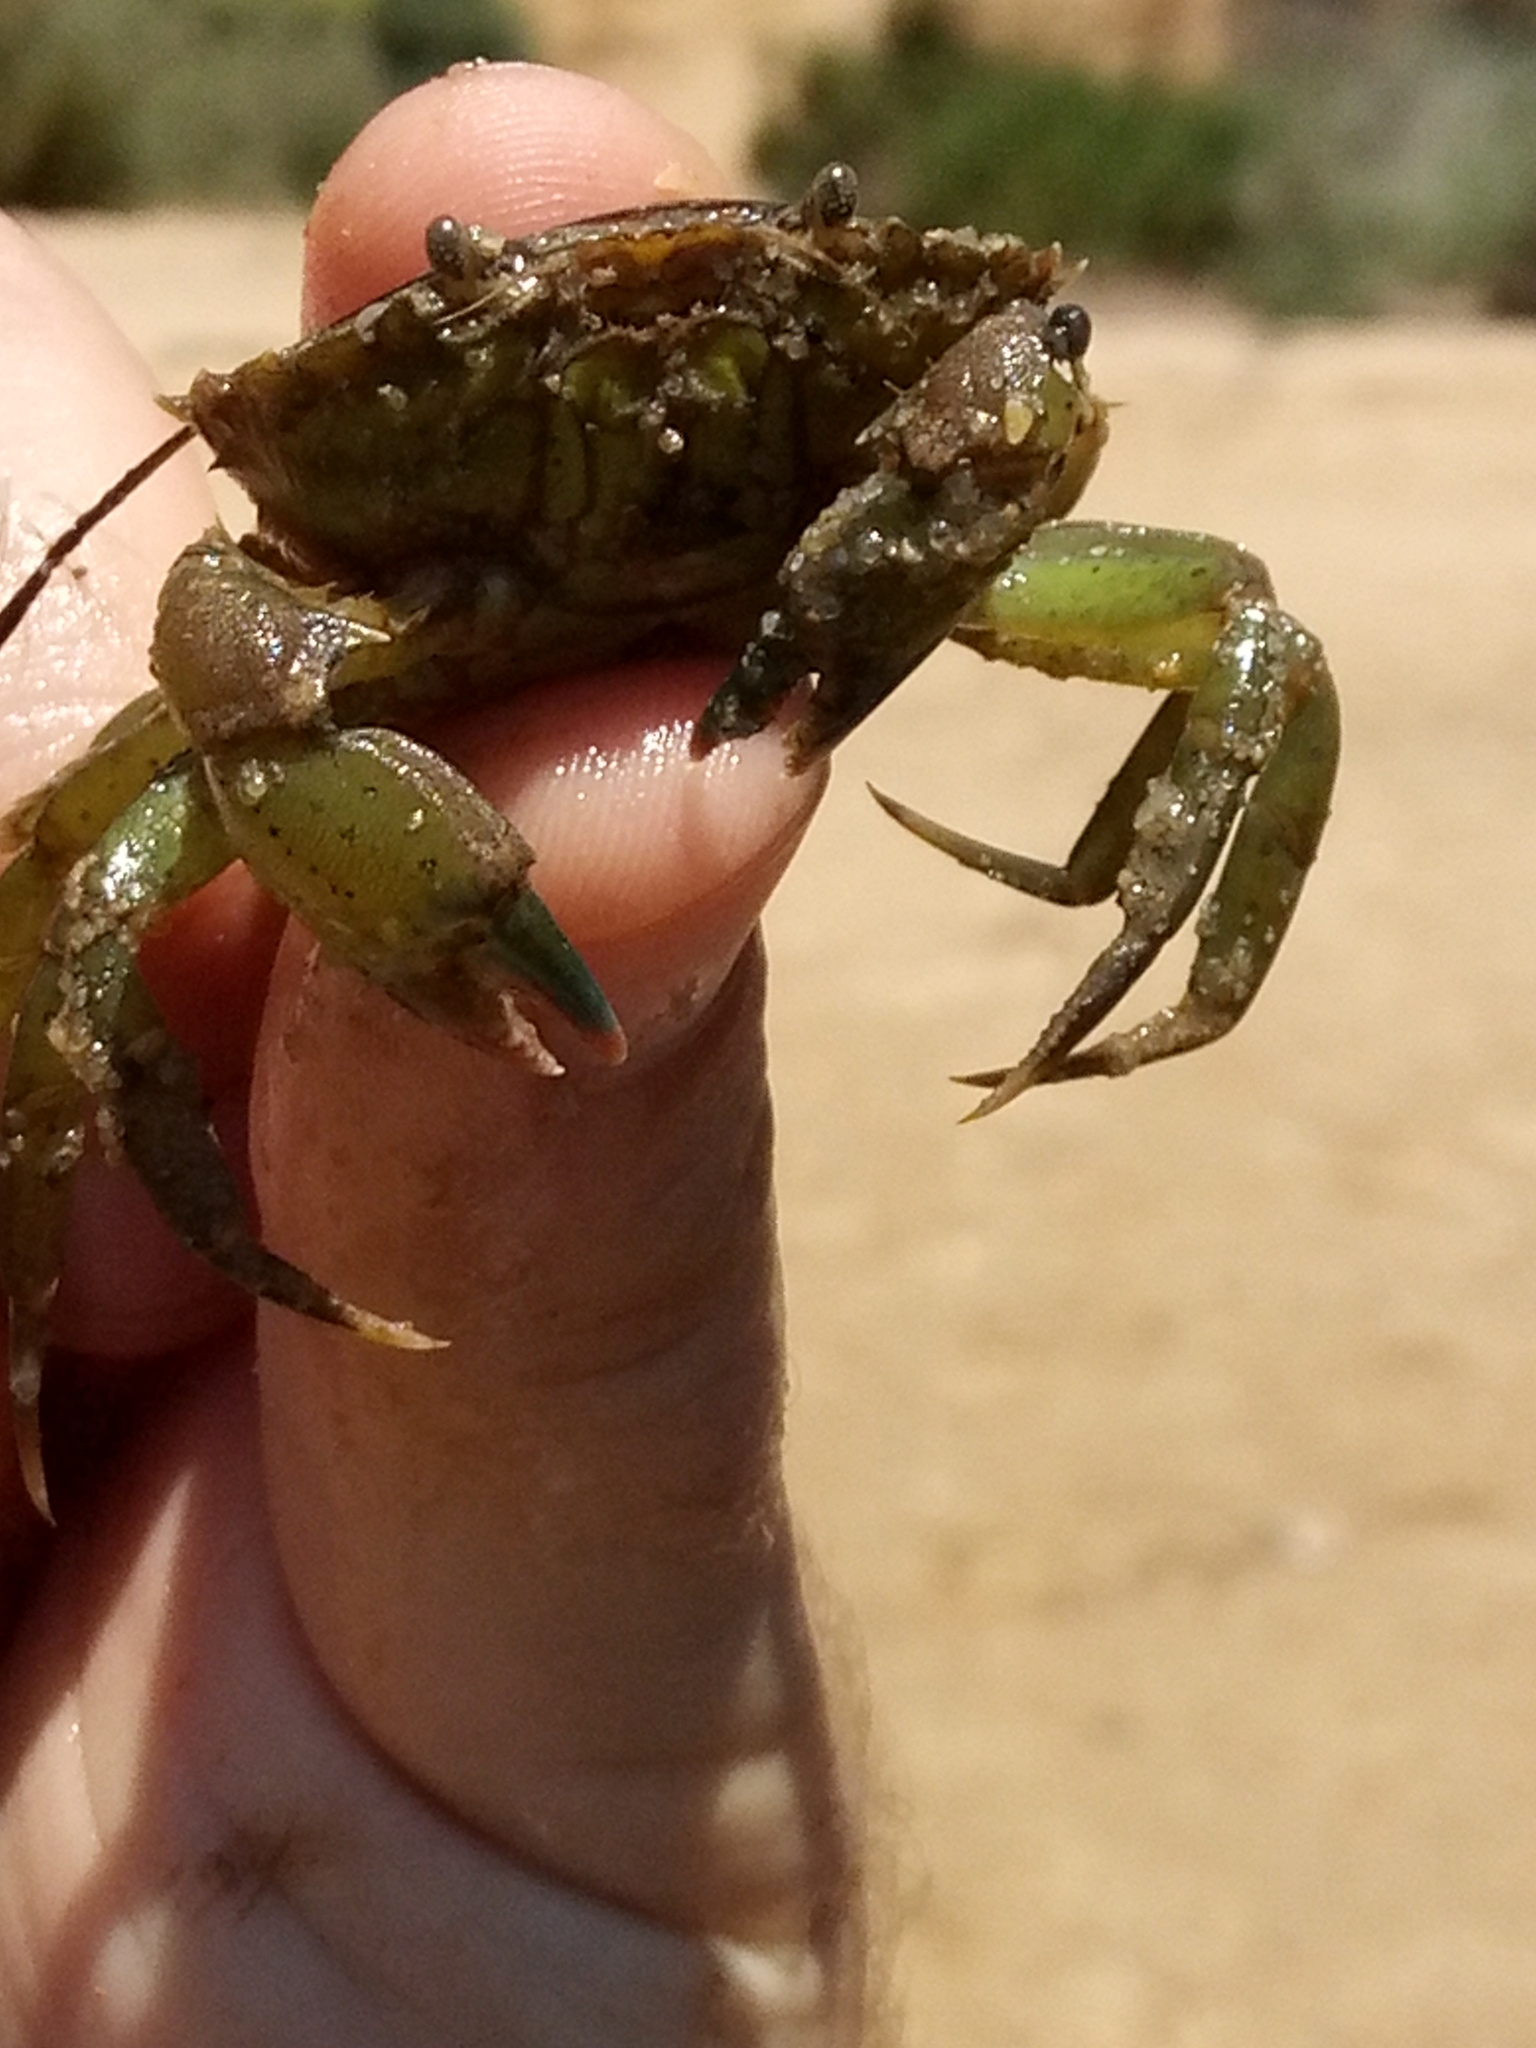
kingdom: Animalia
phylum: Arthropoda
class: Malacostraca
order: Decapoda
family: Carcinidae
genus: Carcinus
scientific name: Carcinus maenas
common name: European green crab
